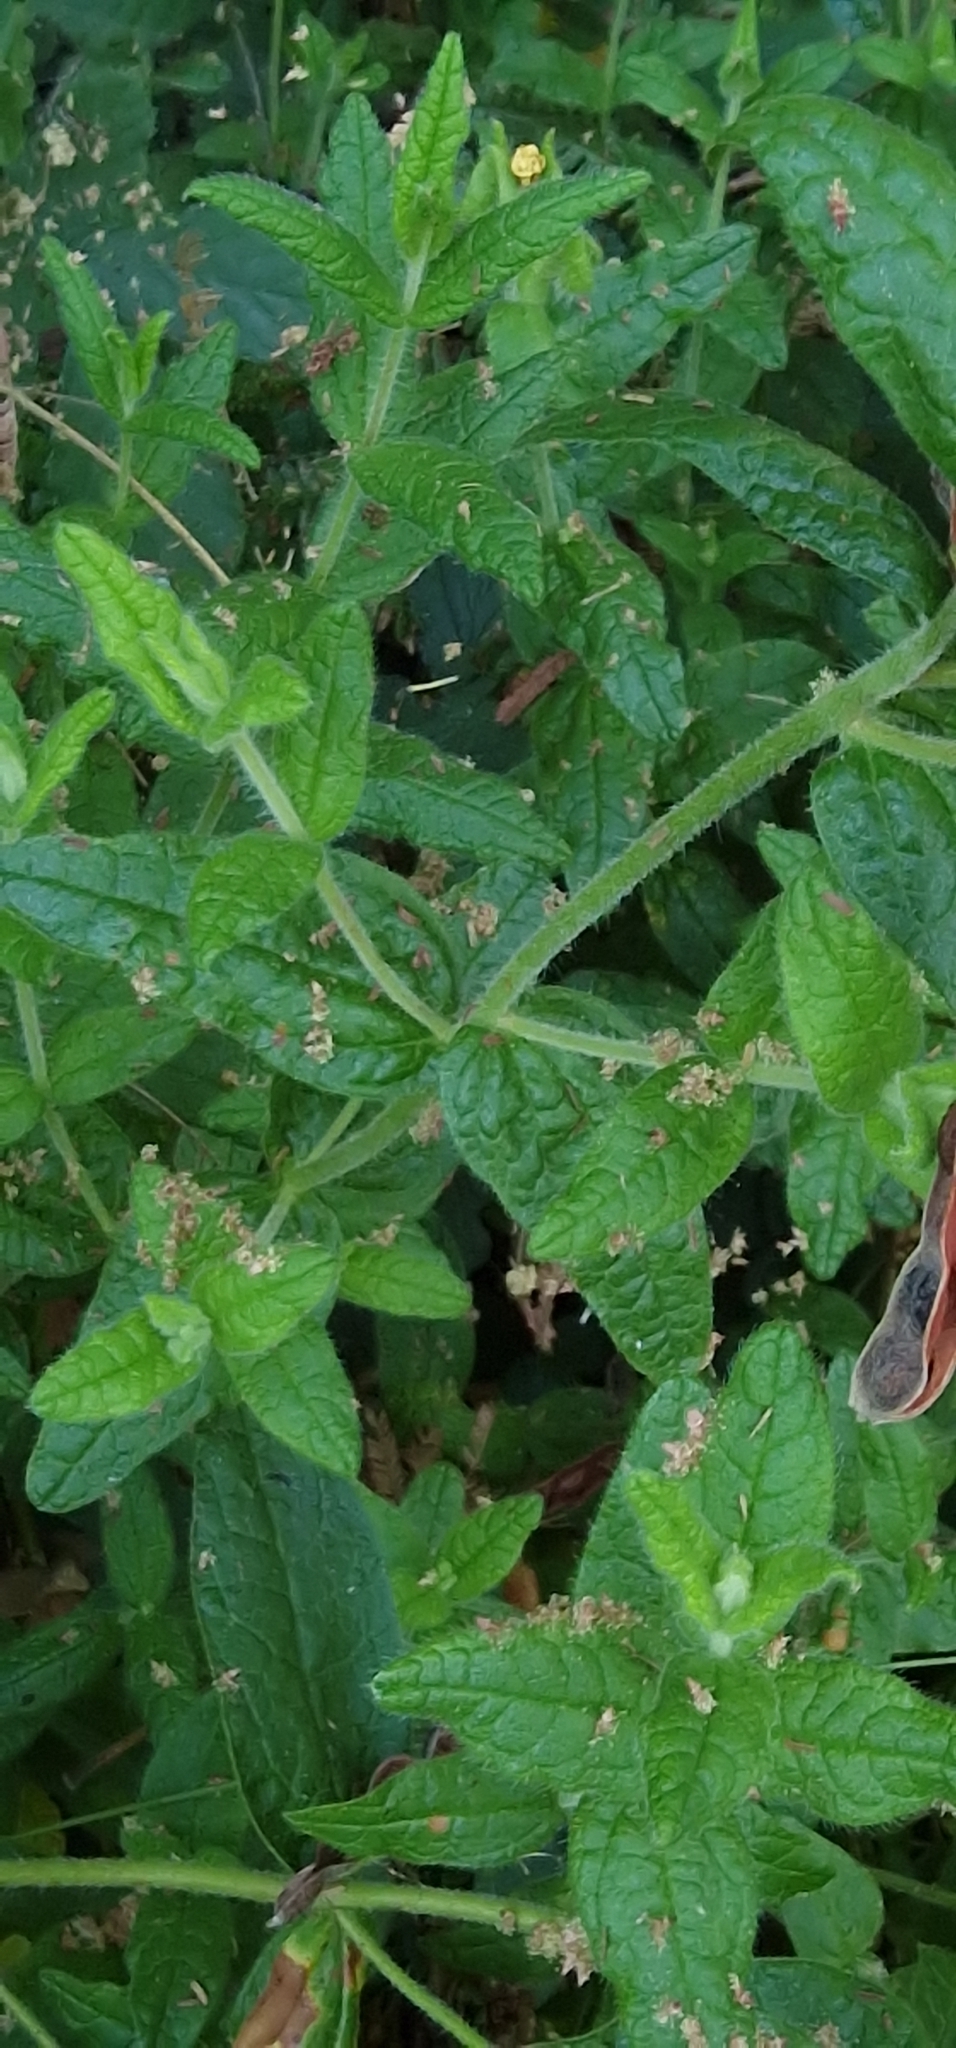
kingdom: Plantae
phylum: Tracheophyta
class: Magnoliopsida
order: Malvales
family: Cistaceae
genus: Cistus
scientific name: Cistus inflatus
